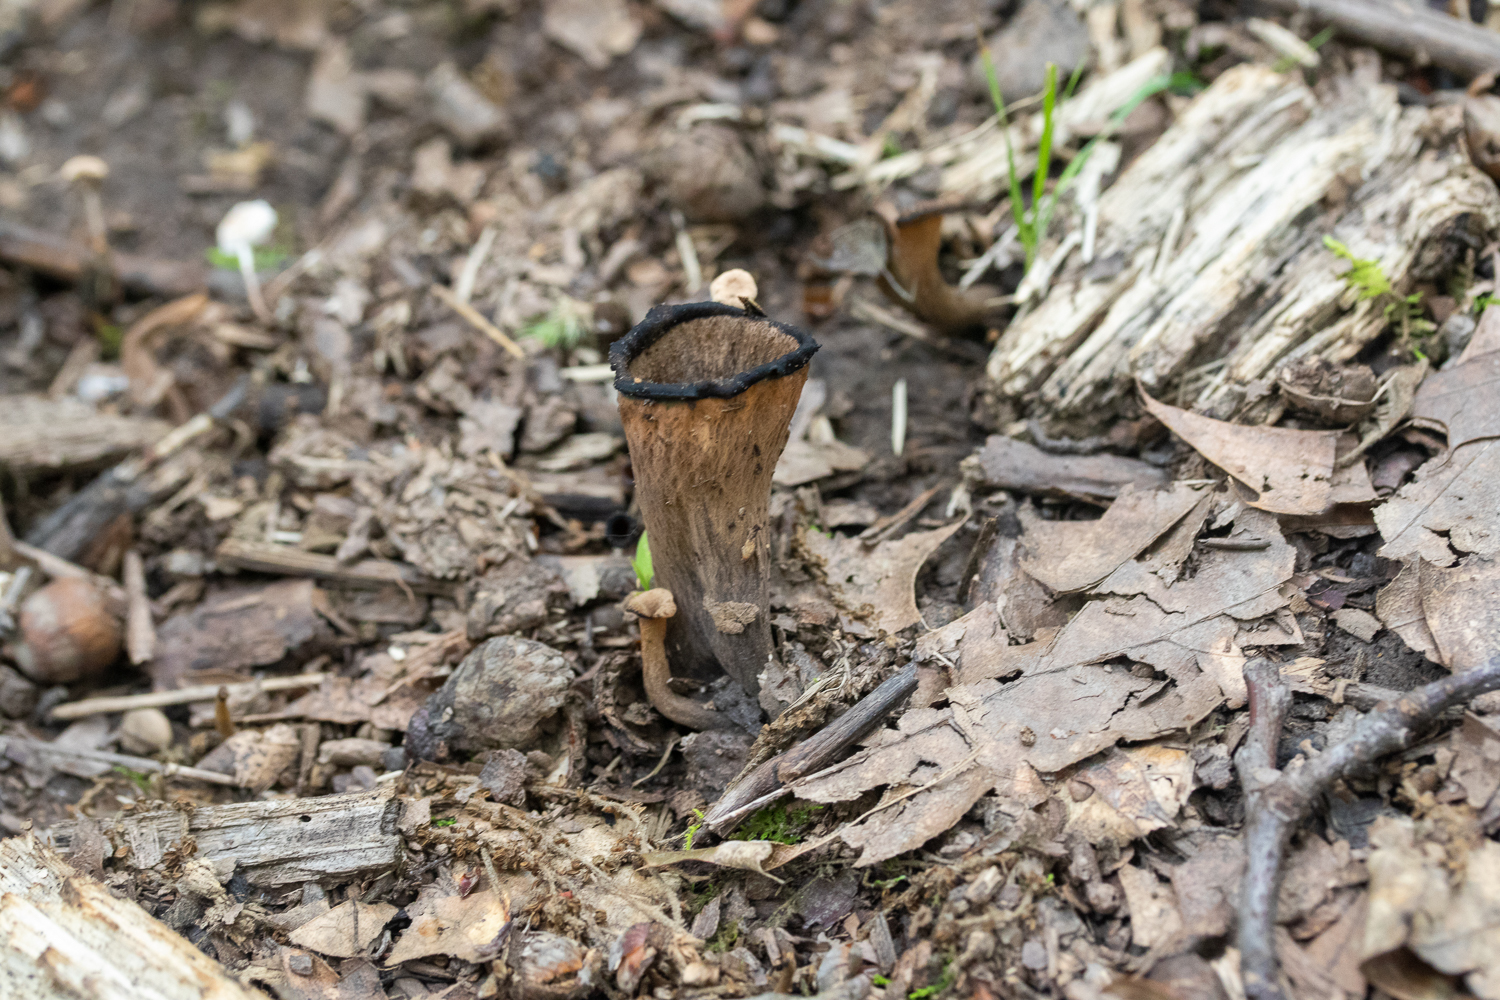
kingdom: Fungi
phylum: Basidiomycota
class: Agaricomycetes
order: Cantharellales
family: Hydnaceae
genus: Craterellus
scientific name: Craterellus cornucopioides
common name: Horn of plenty
